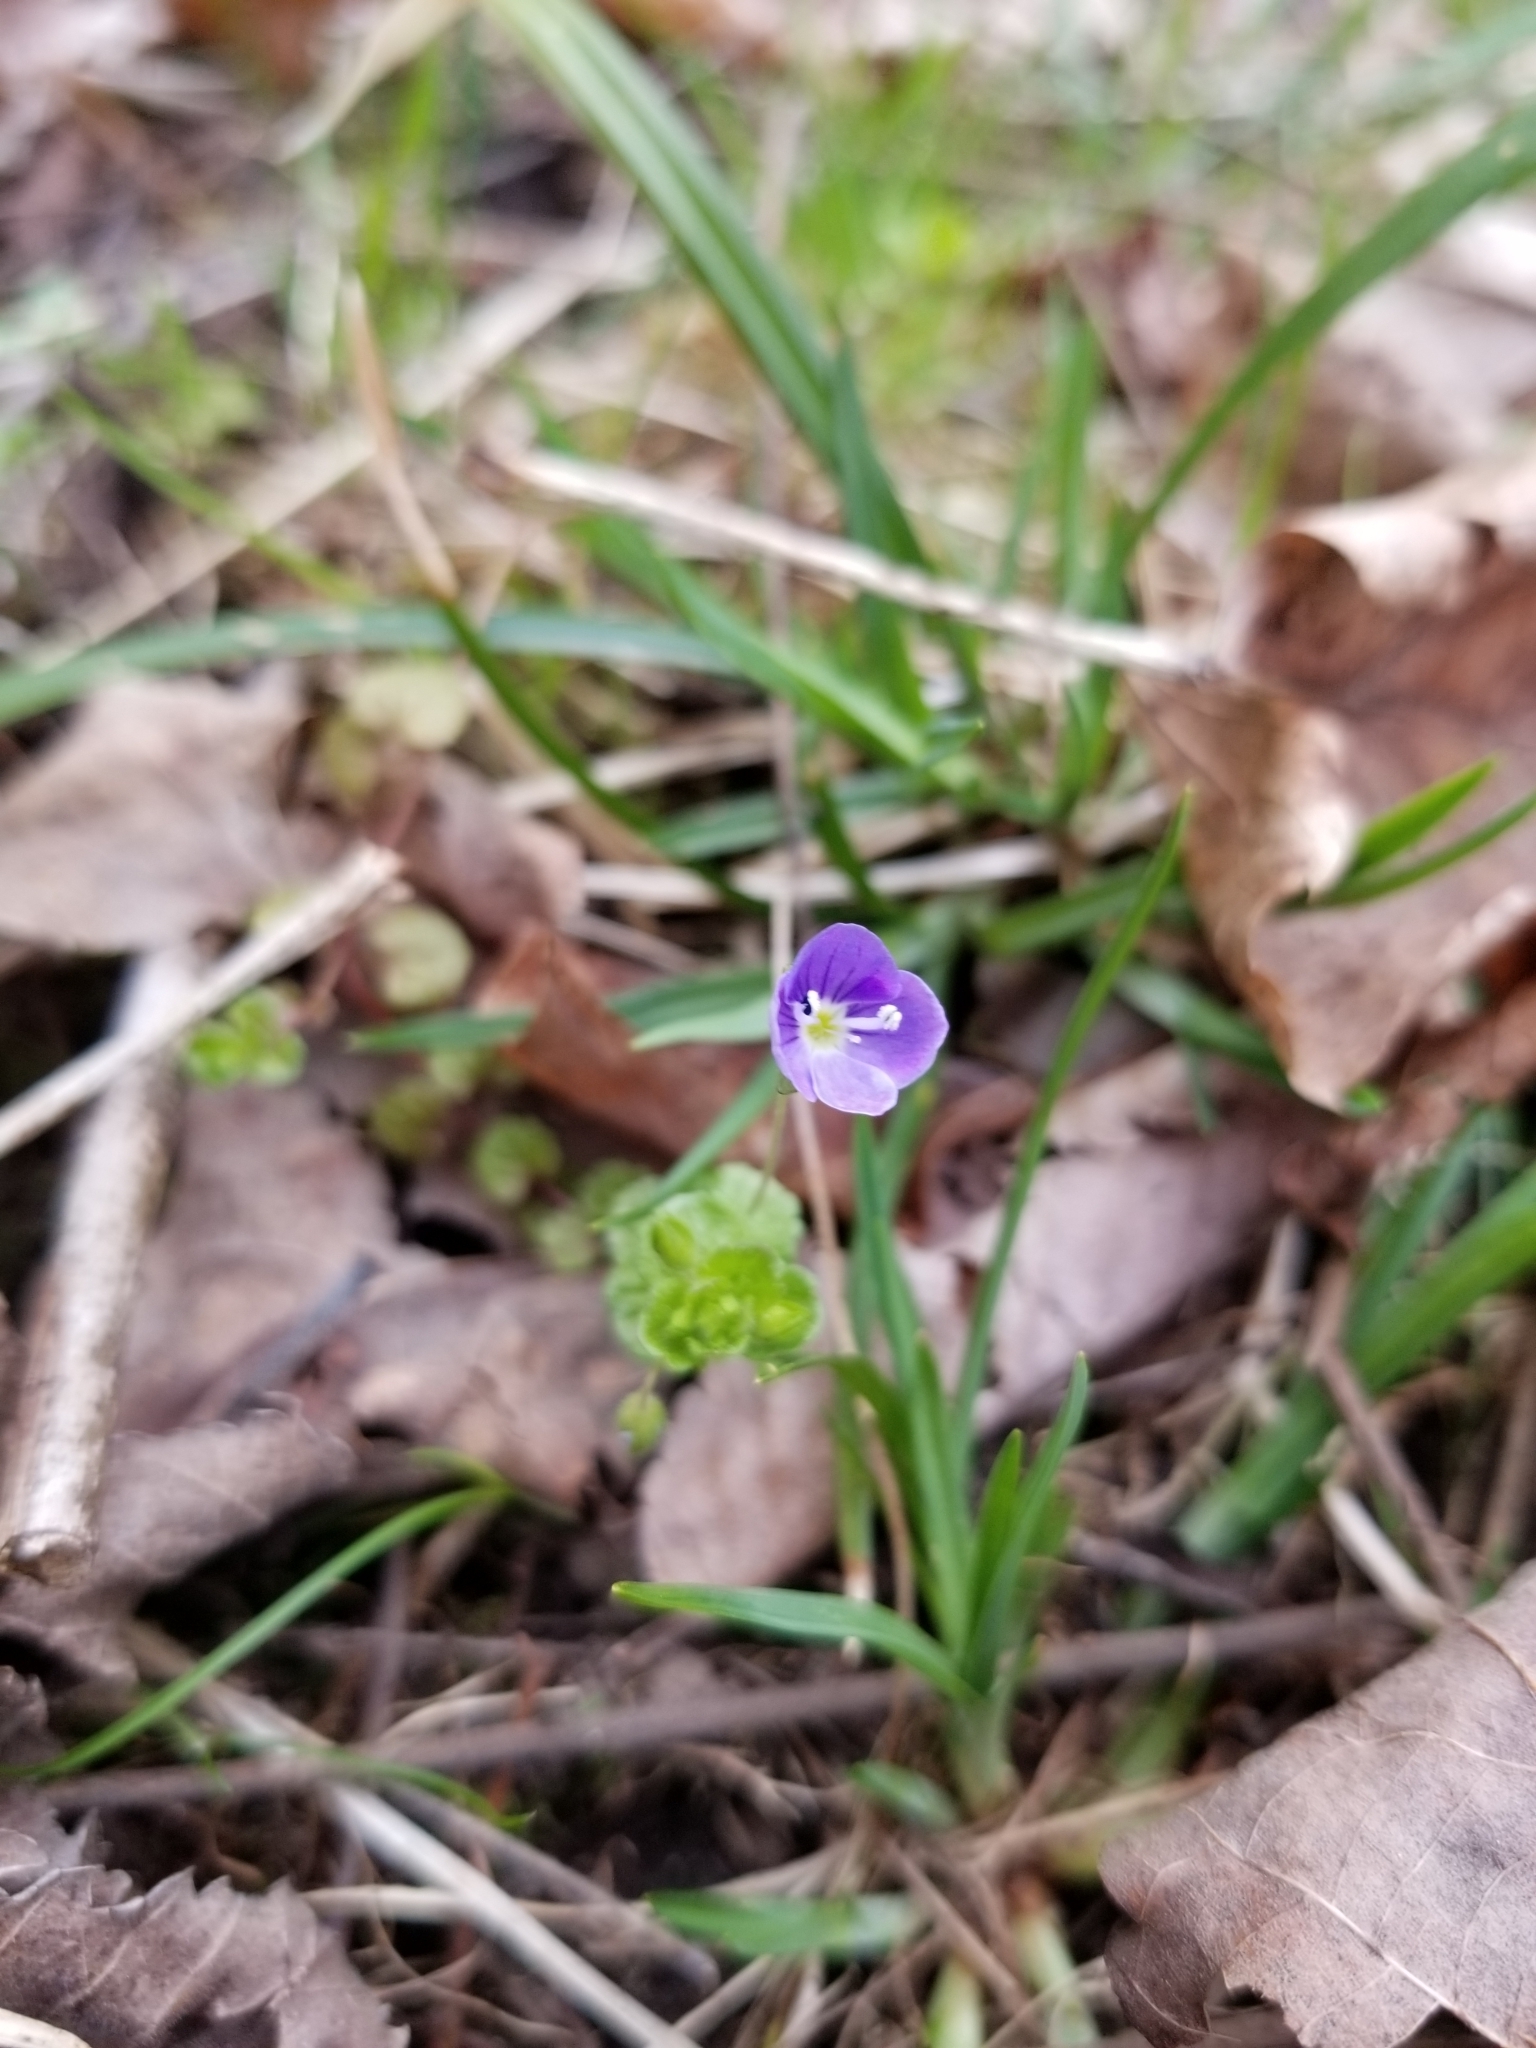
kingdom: Plantae
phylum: Tracheophyta
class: Magnoliopsida
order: Lamiales
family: Plantaginaceae
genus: Veronica
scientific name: Veronica filiformis
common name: Slender speedwell
